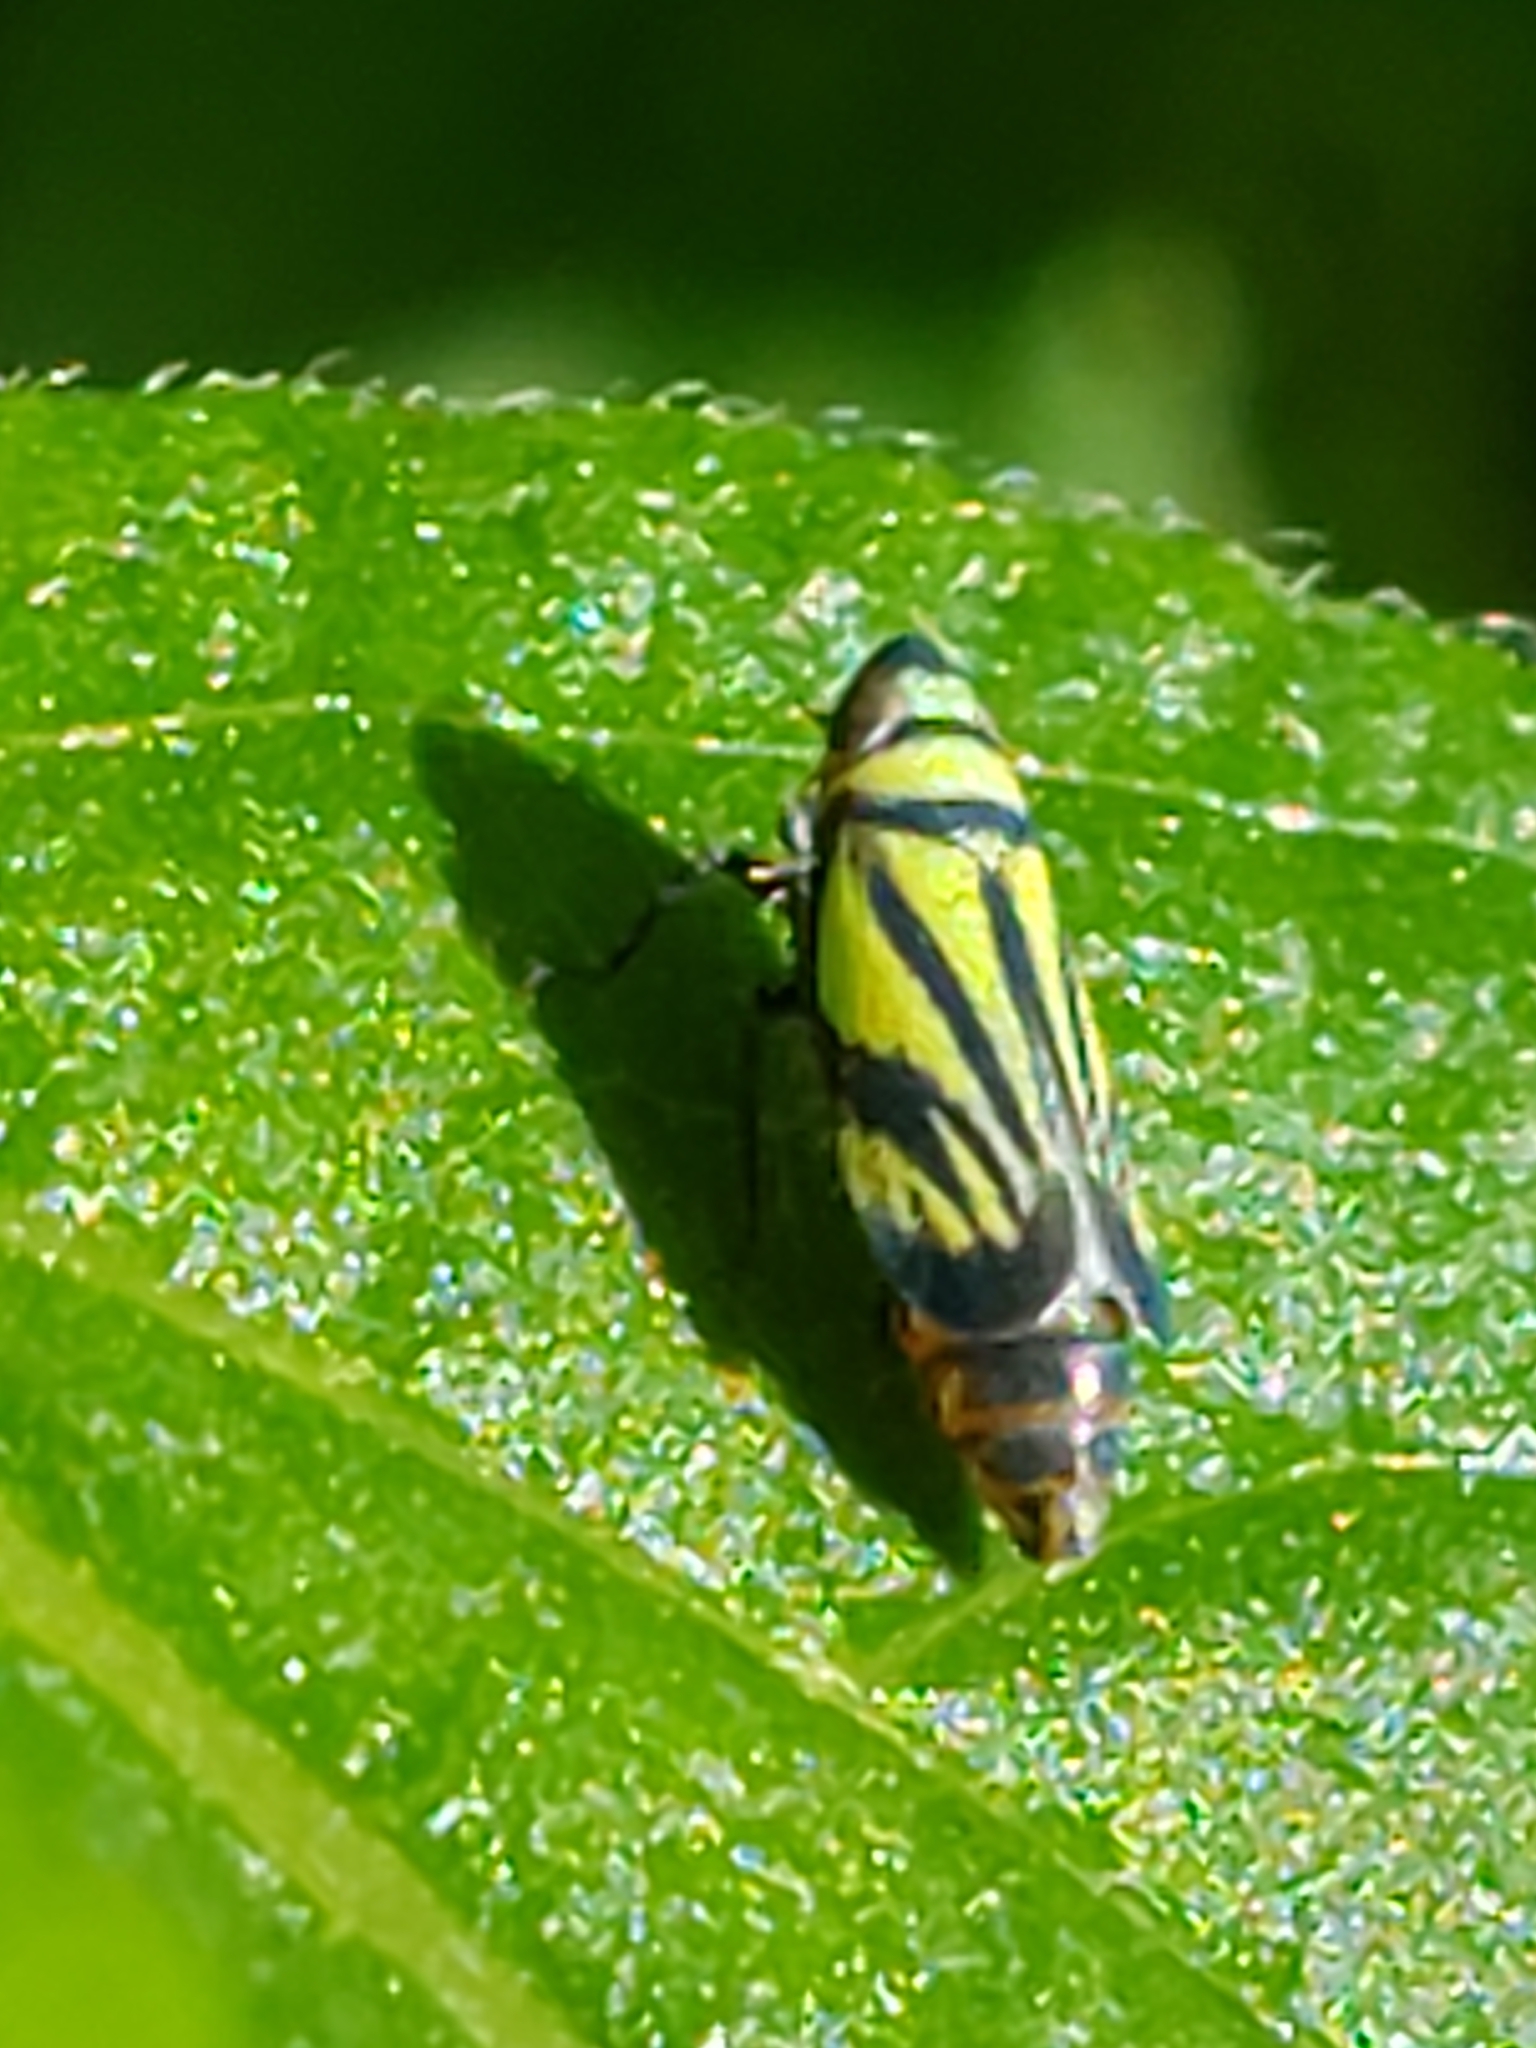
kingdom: Animalia
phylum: Arthropoda
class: Insecta
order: Hemiptera
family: Cicadellidae
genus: Stirellus
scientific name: Stirellus bicolor
